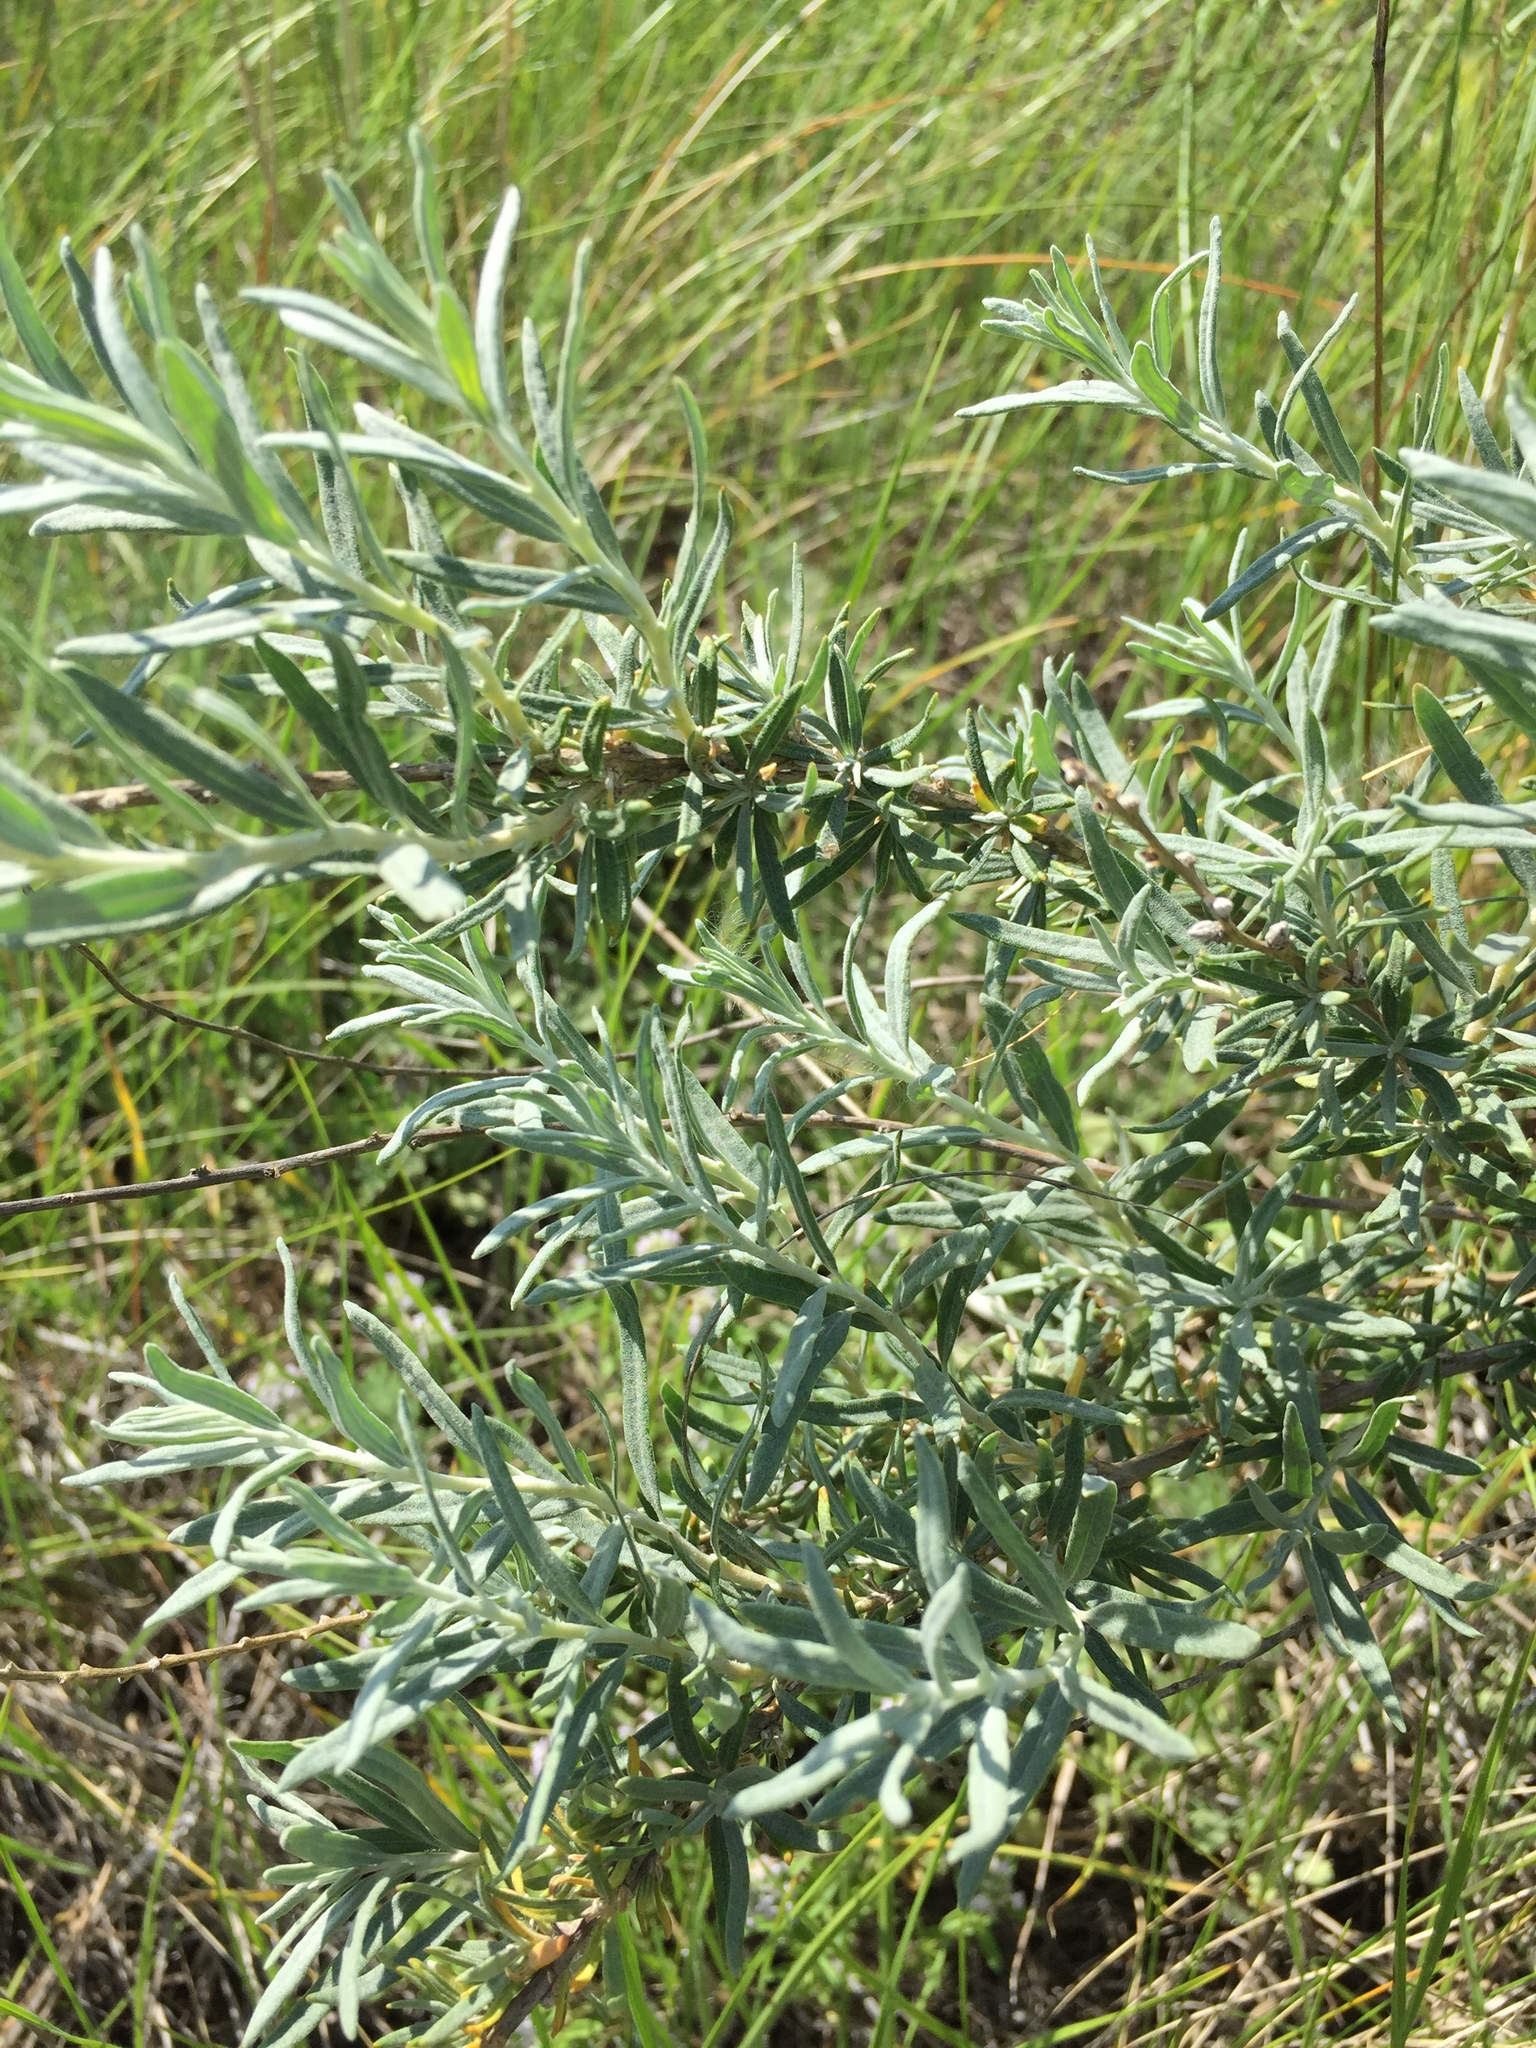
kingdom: Plantae
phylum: Tracheophyta
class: Magnoliopsida
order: Caryophyllales
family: Amaranthaceae
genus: Krascheninnikovia
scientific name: Krascheninnikovia ceratoides
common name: Pamirian winterfat
